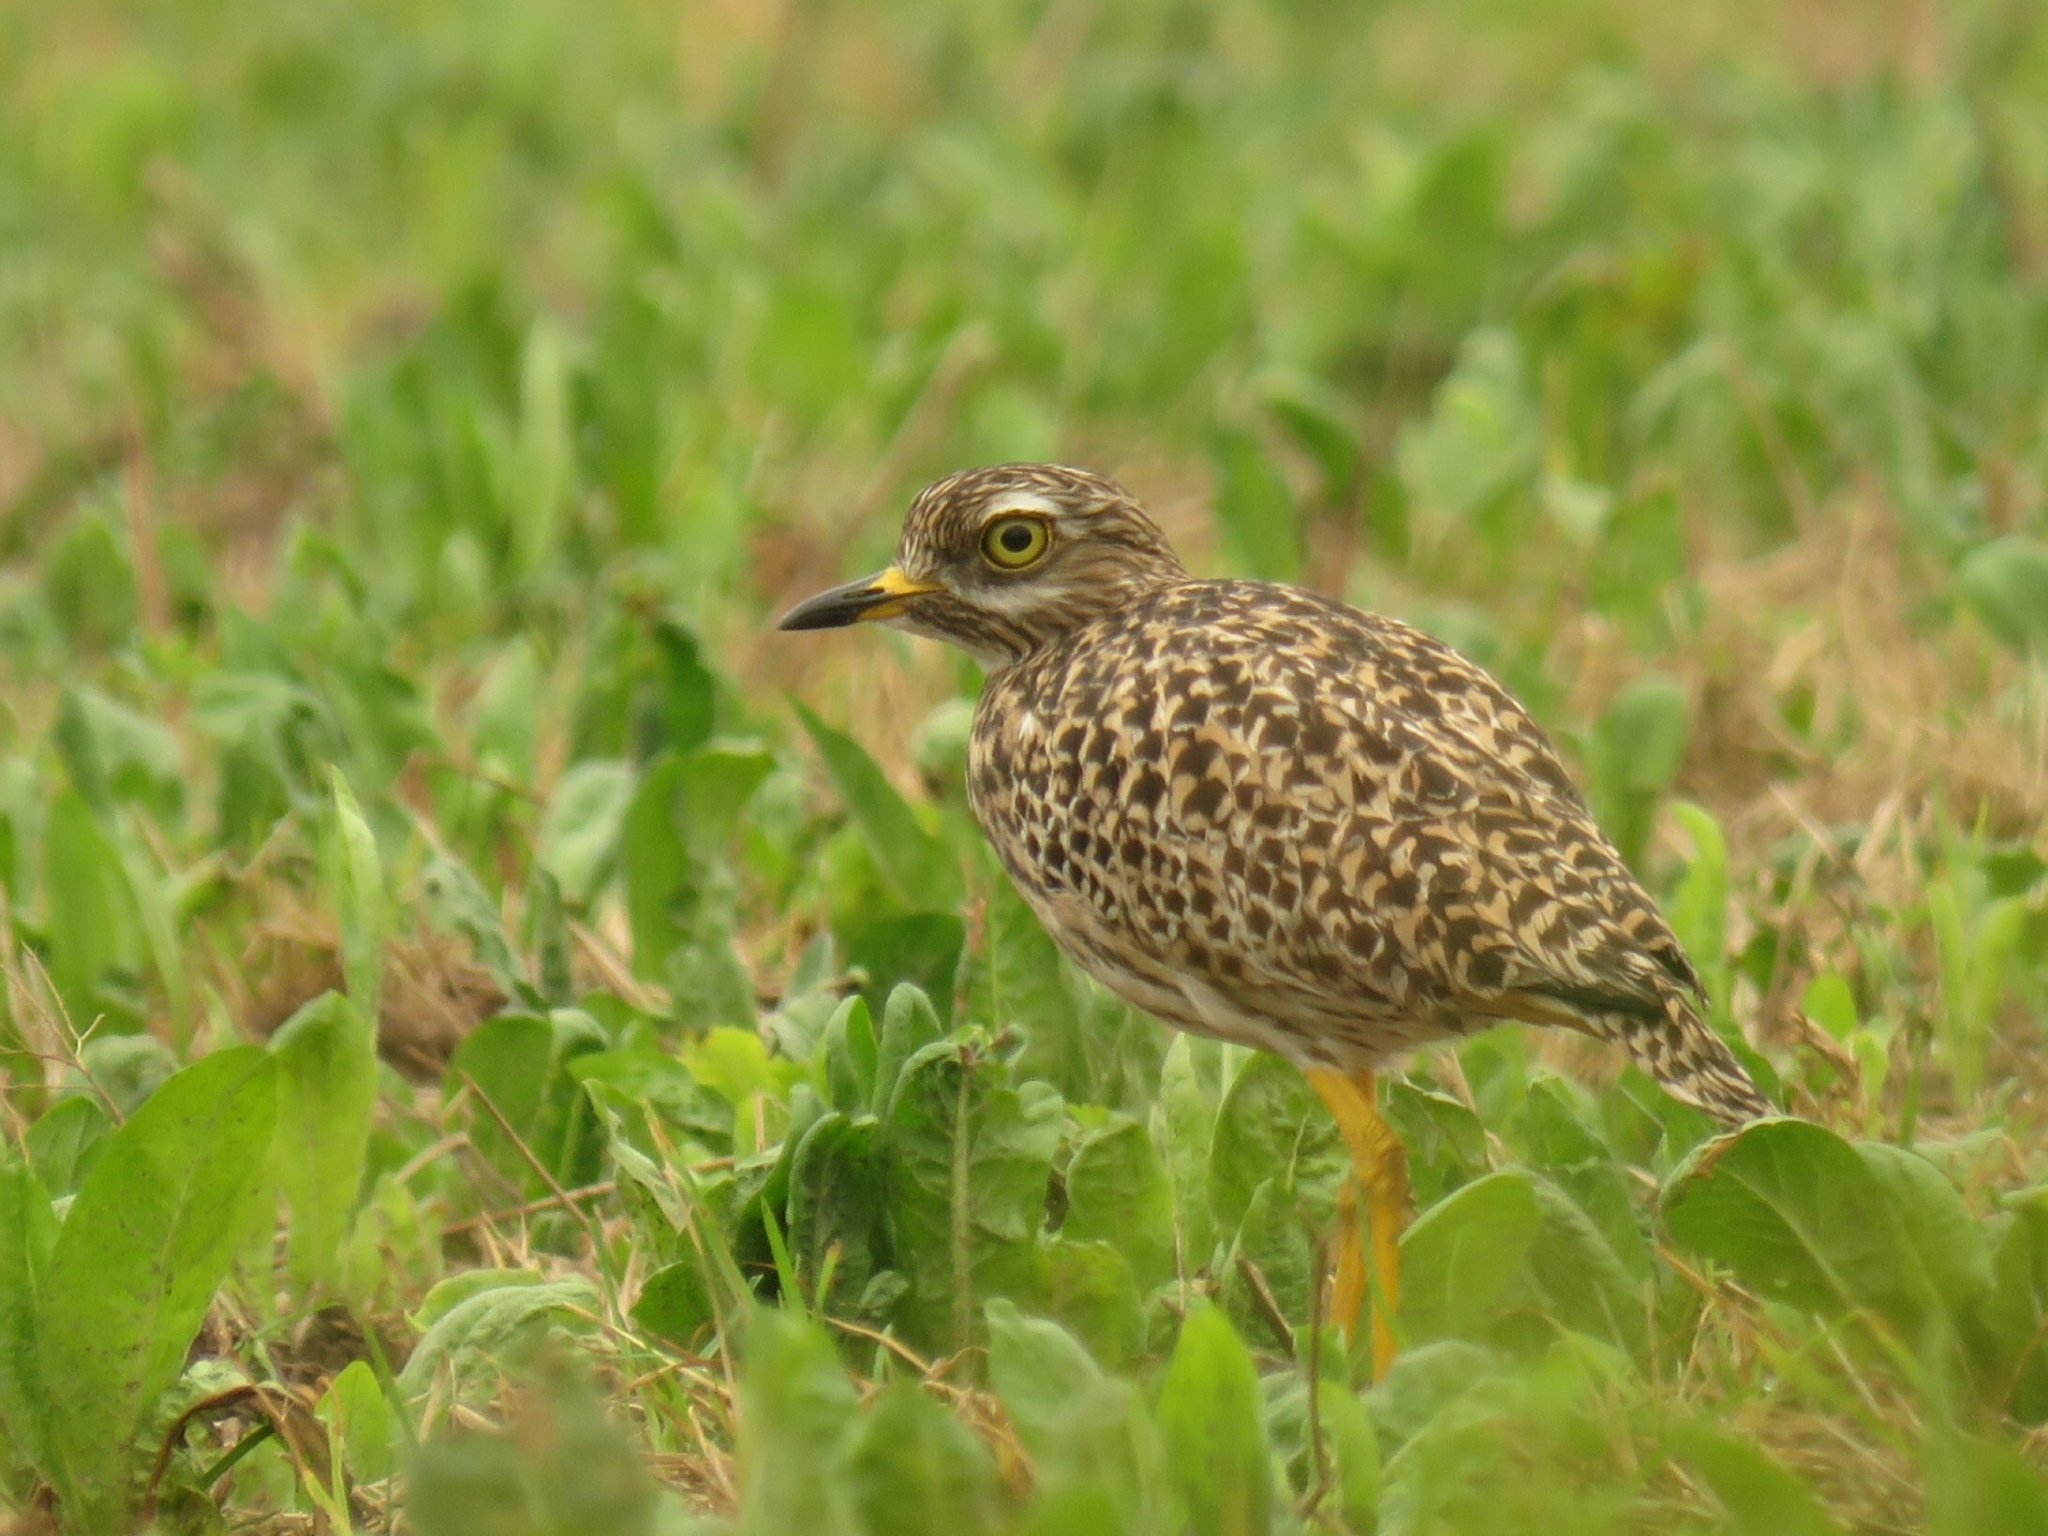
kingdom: Animalia
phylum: Chordata
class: Aves
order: Charadriiformes
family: Burhinidae
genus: Burhinus
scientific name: Burhinus capensis
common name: Spotted thick-knee
